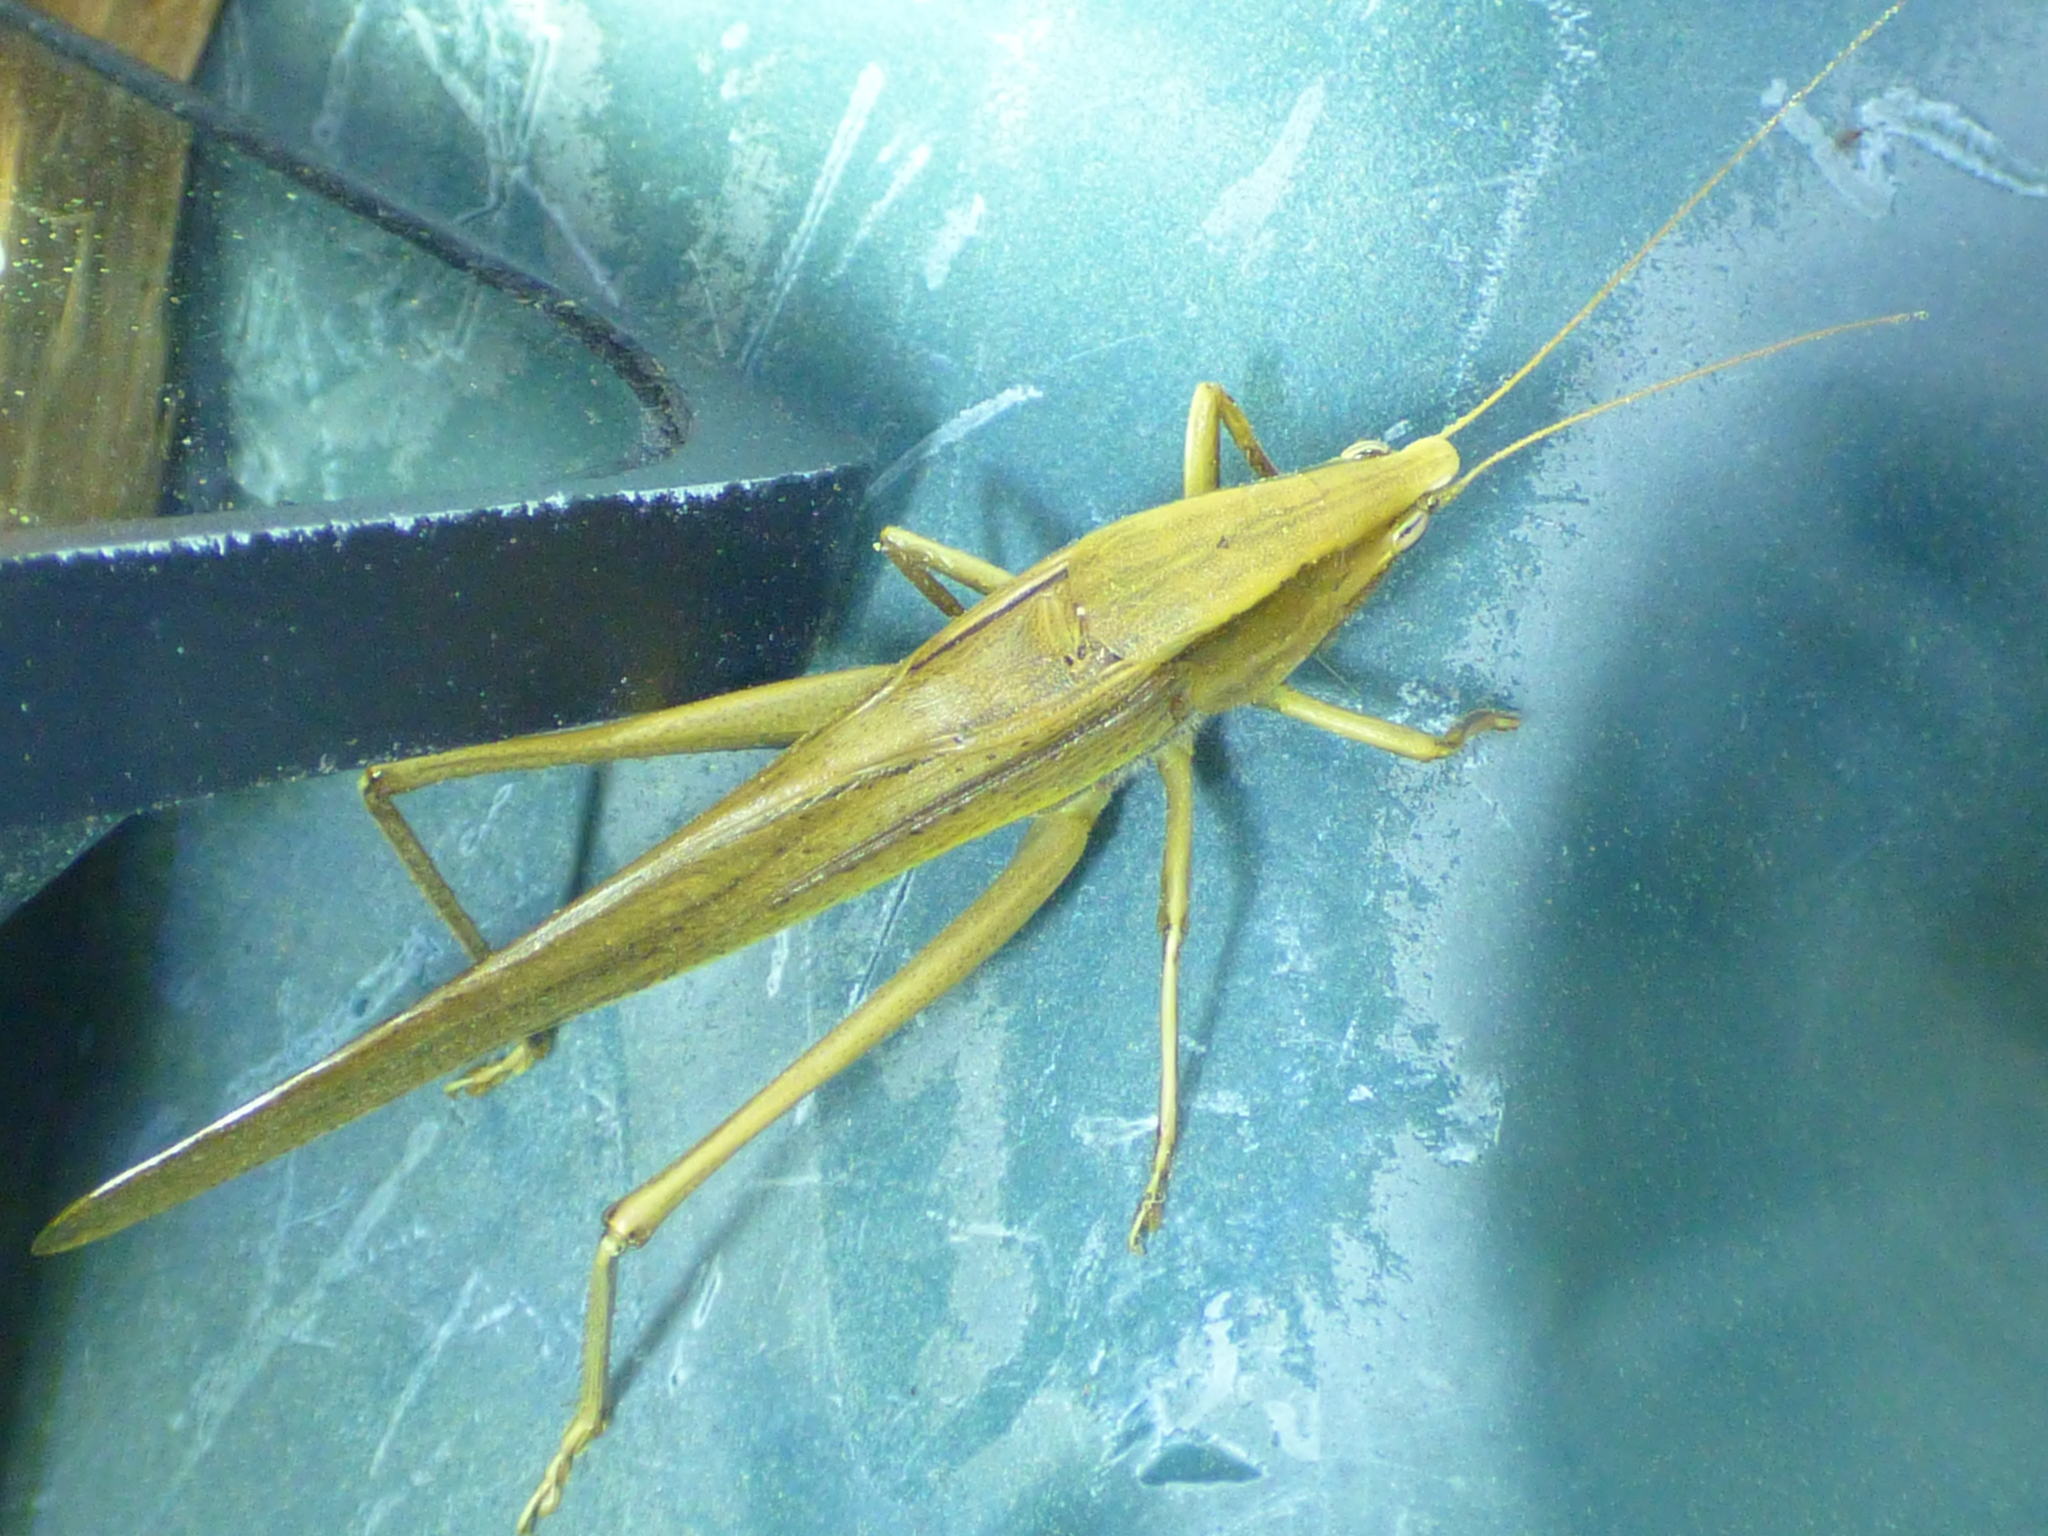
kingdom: Animalia
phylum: Arthropoda
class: Insecta
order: Orthoptera
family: Tettigoniidae
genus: Neoconocephalus
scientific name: Neoconocephalus triops
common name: Broad-tipped conehead
